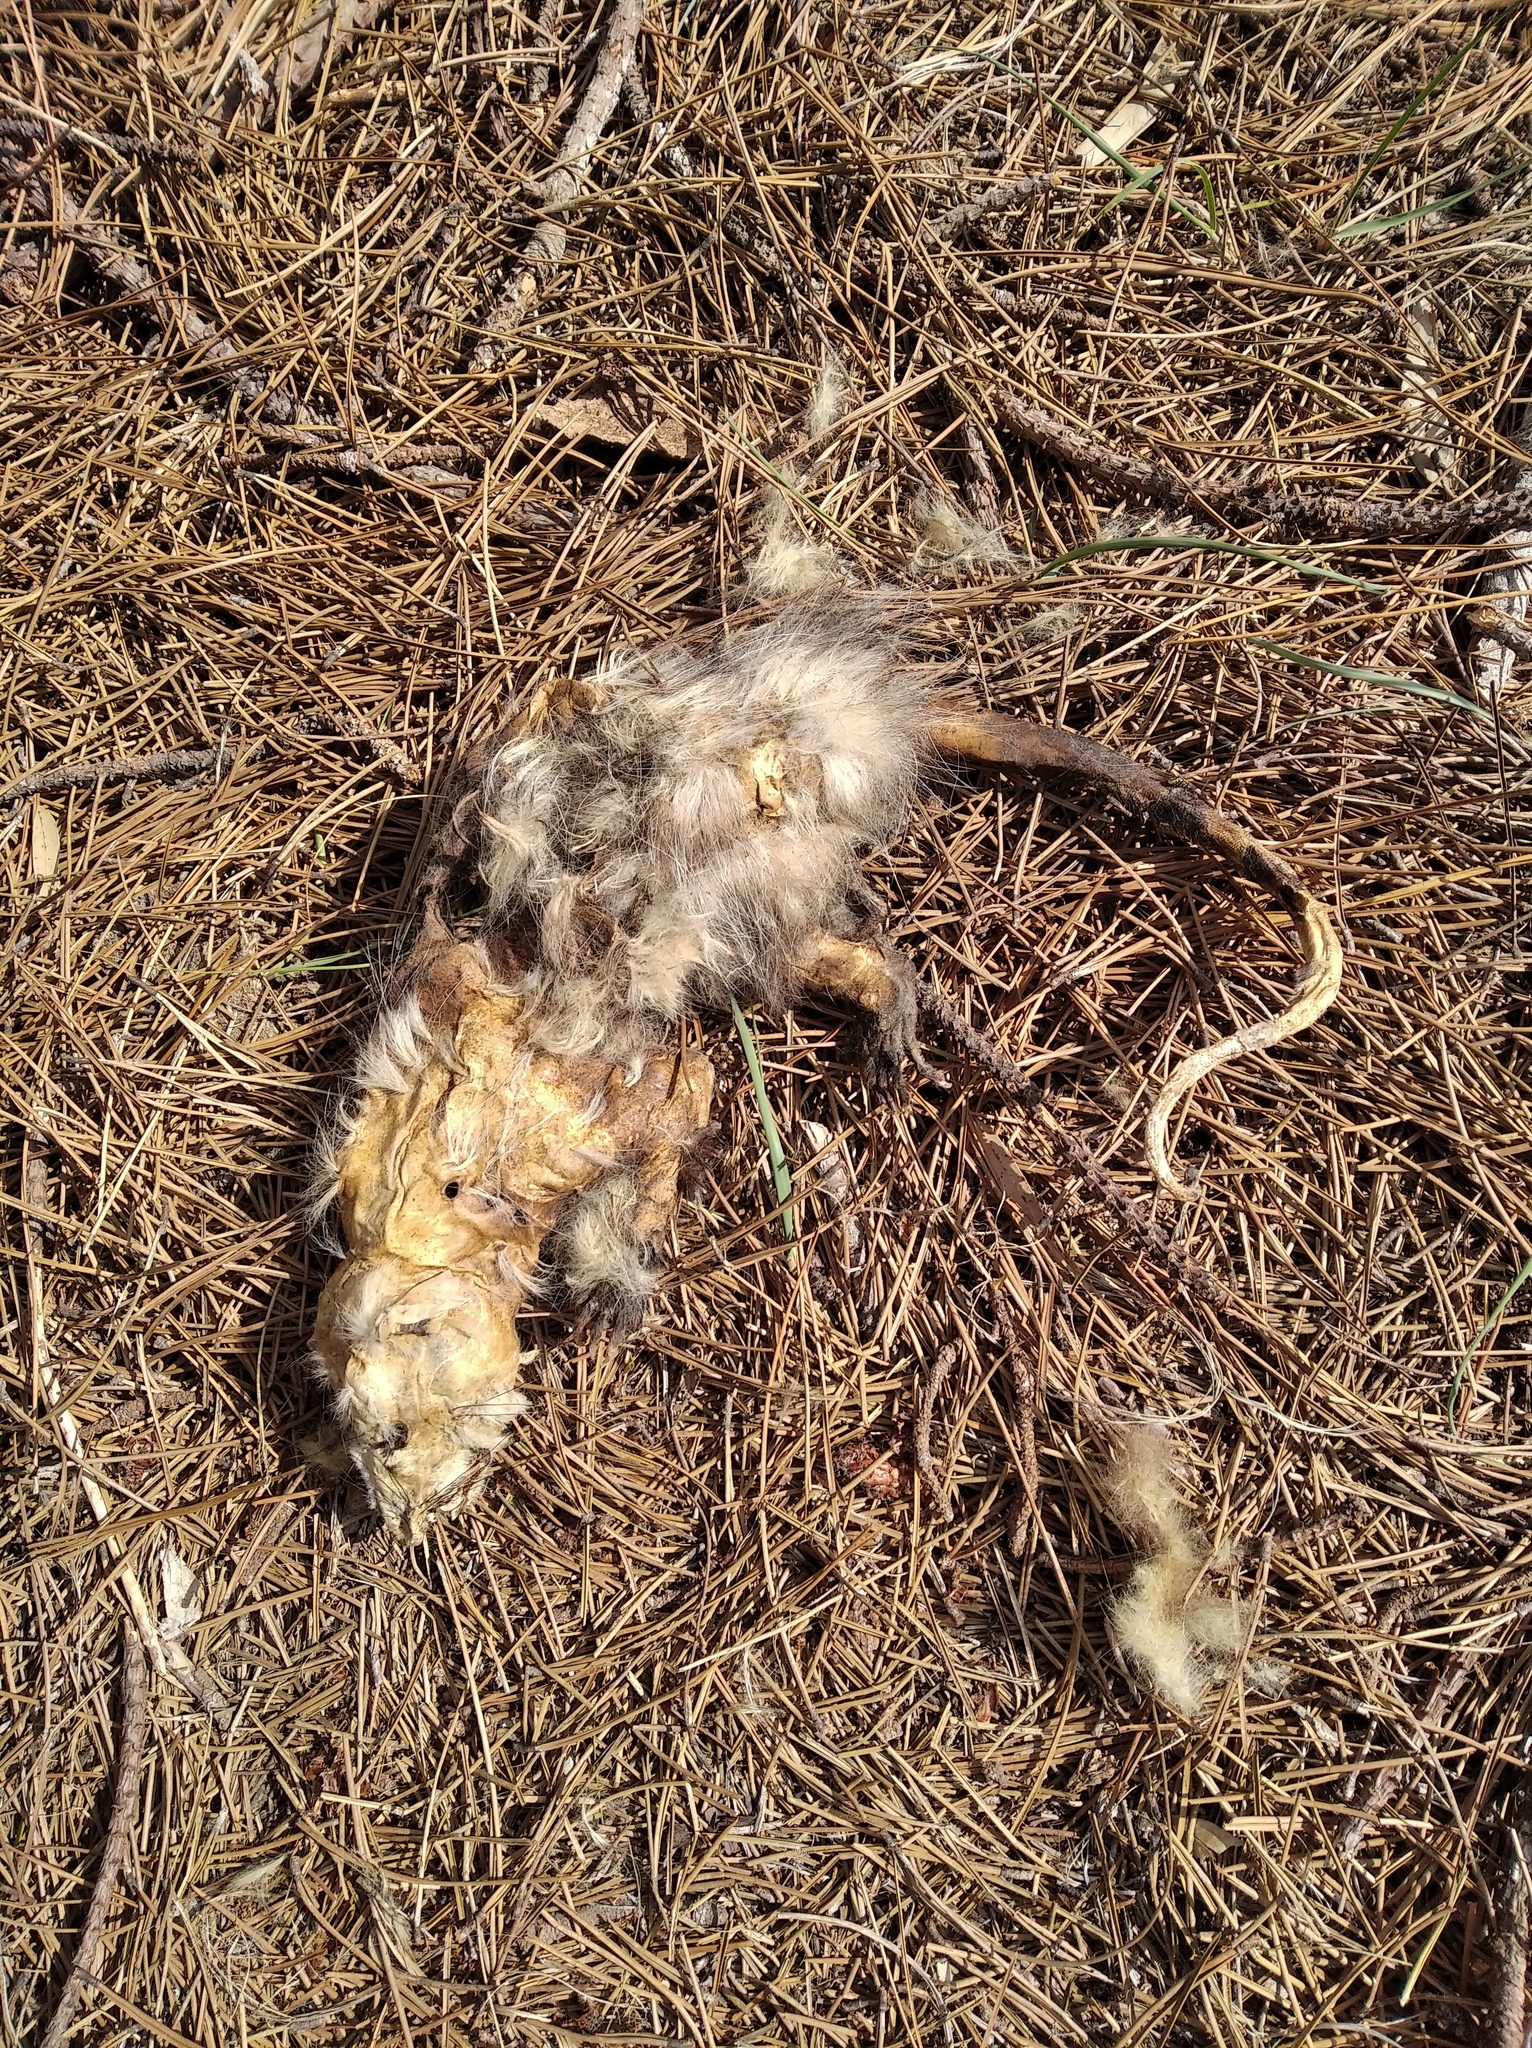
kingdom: Animalia
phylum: Chordata
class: Mammalia
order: Didelphimorphia
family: Didelphidae
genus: Didelphis
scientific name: Didelphis albiventris
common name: White-eared opossum
